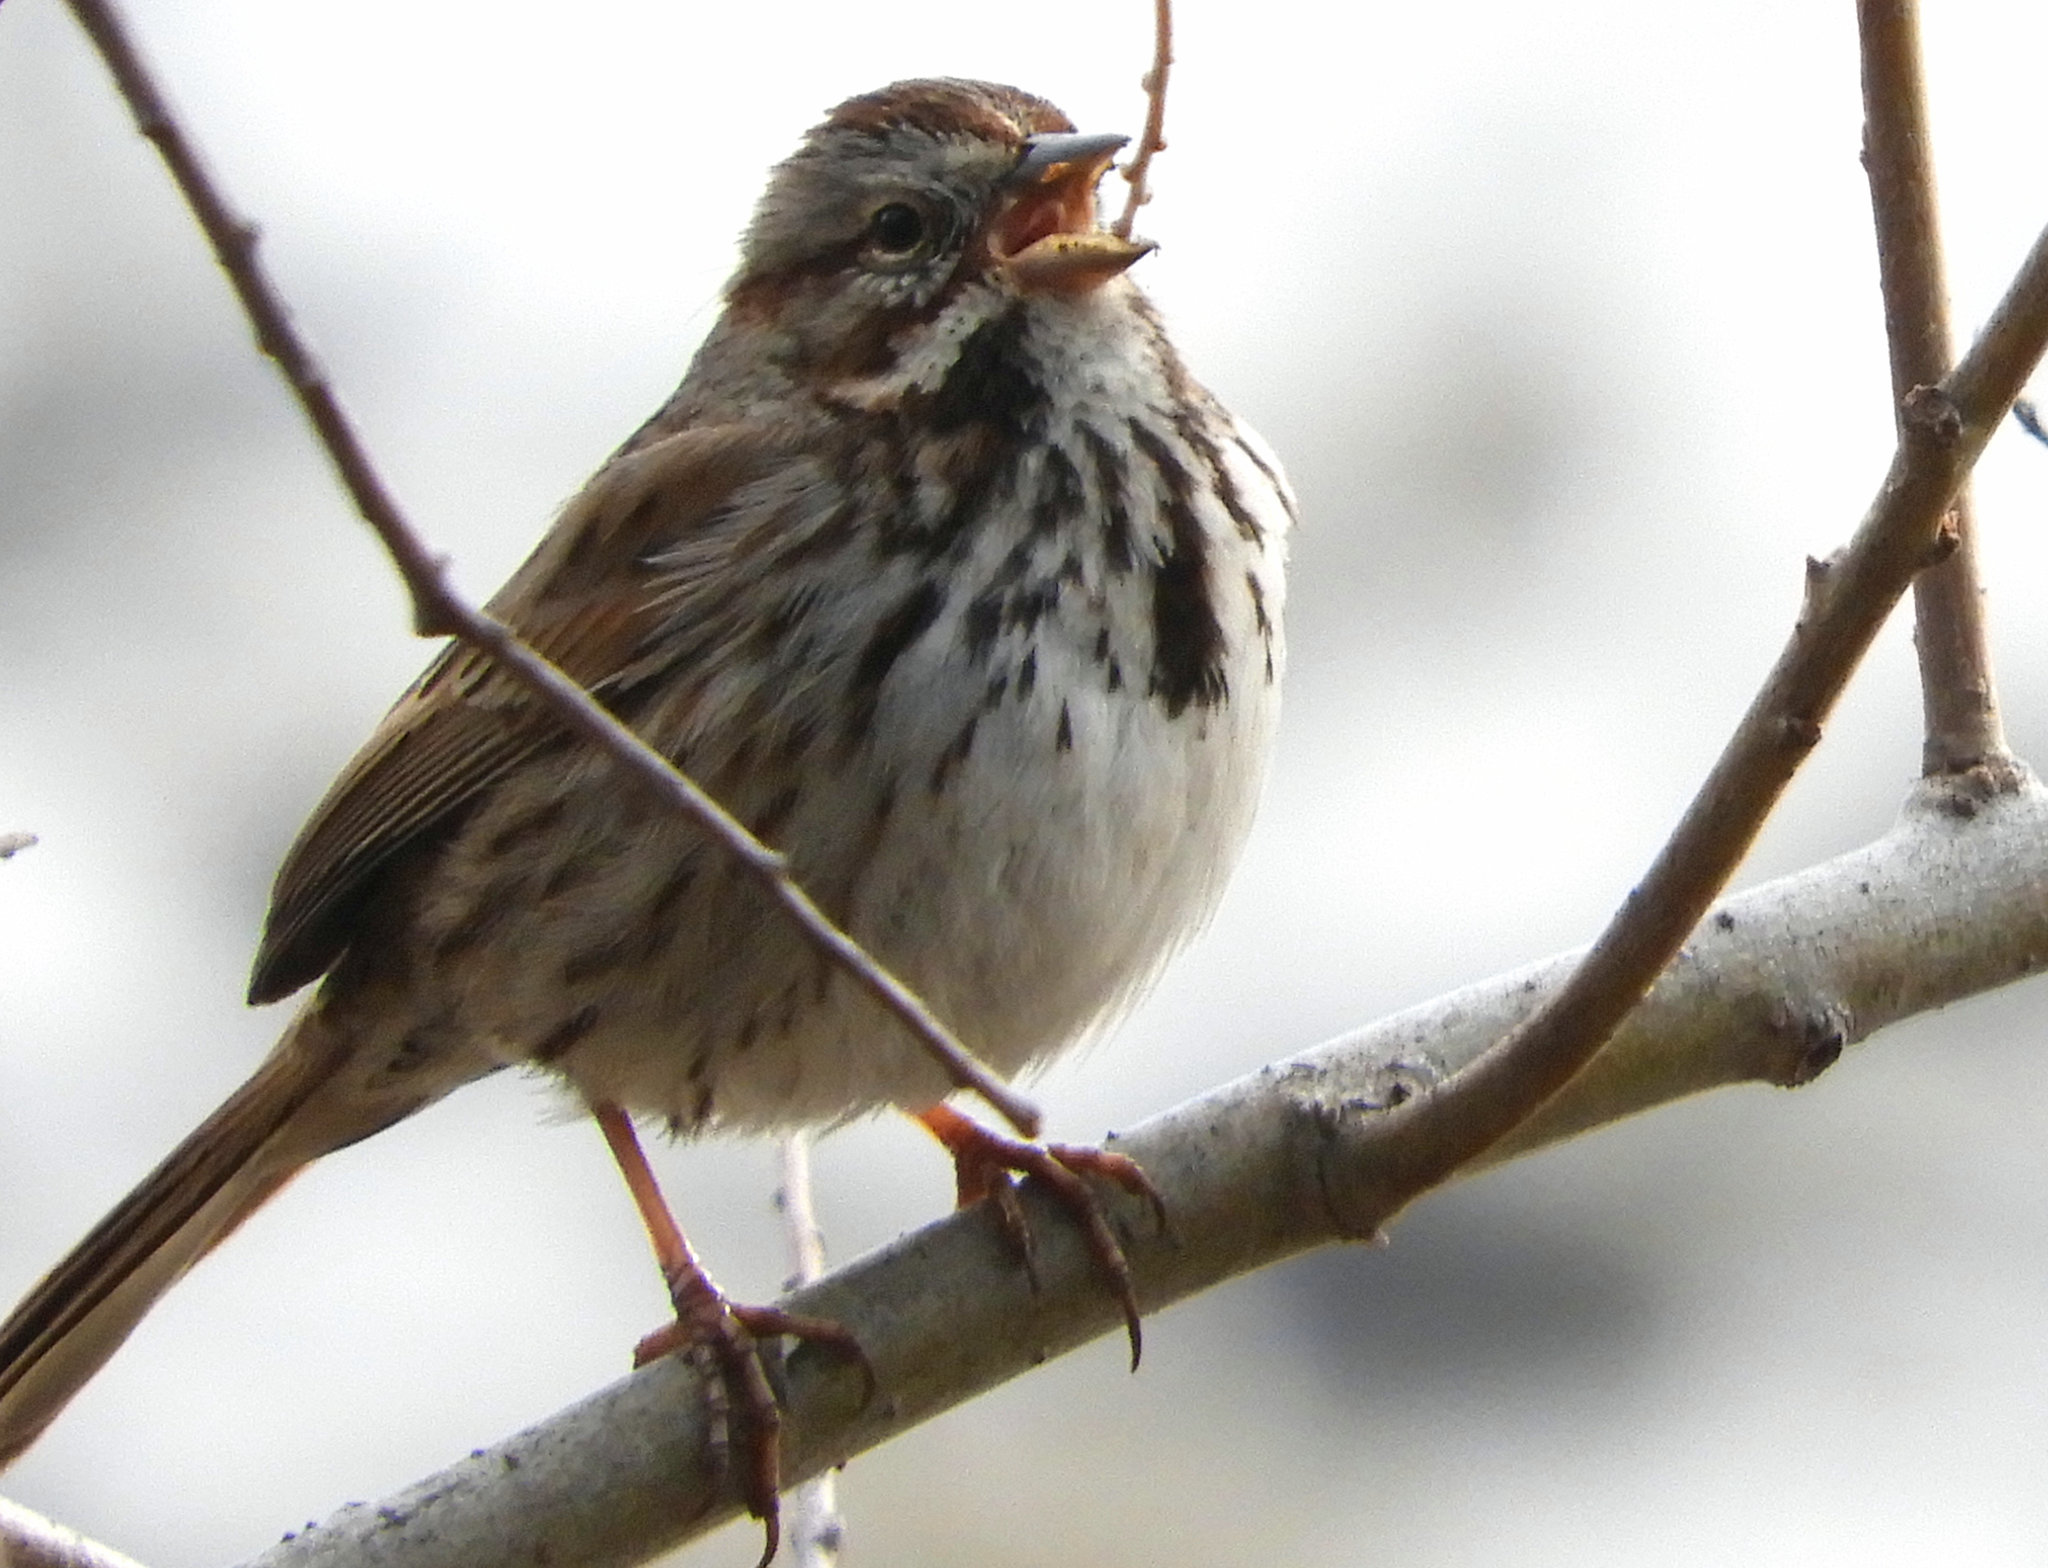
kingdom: Animalia
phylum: Chordata
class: Aves
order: Passeriformes
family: Passerellidae
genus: Melospiza
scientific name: Melospiza melodia
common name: Song sparrow
